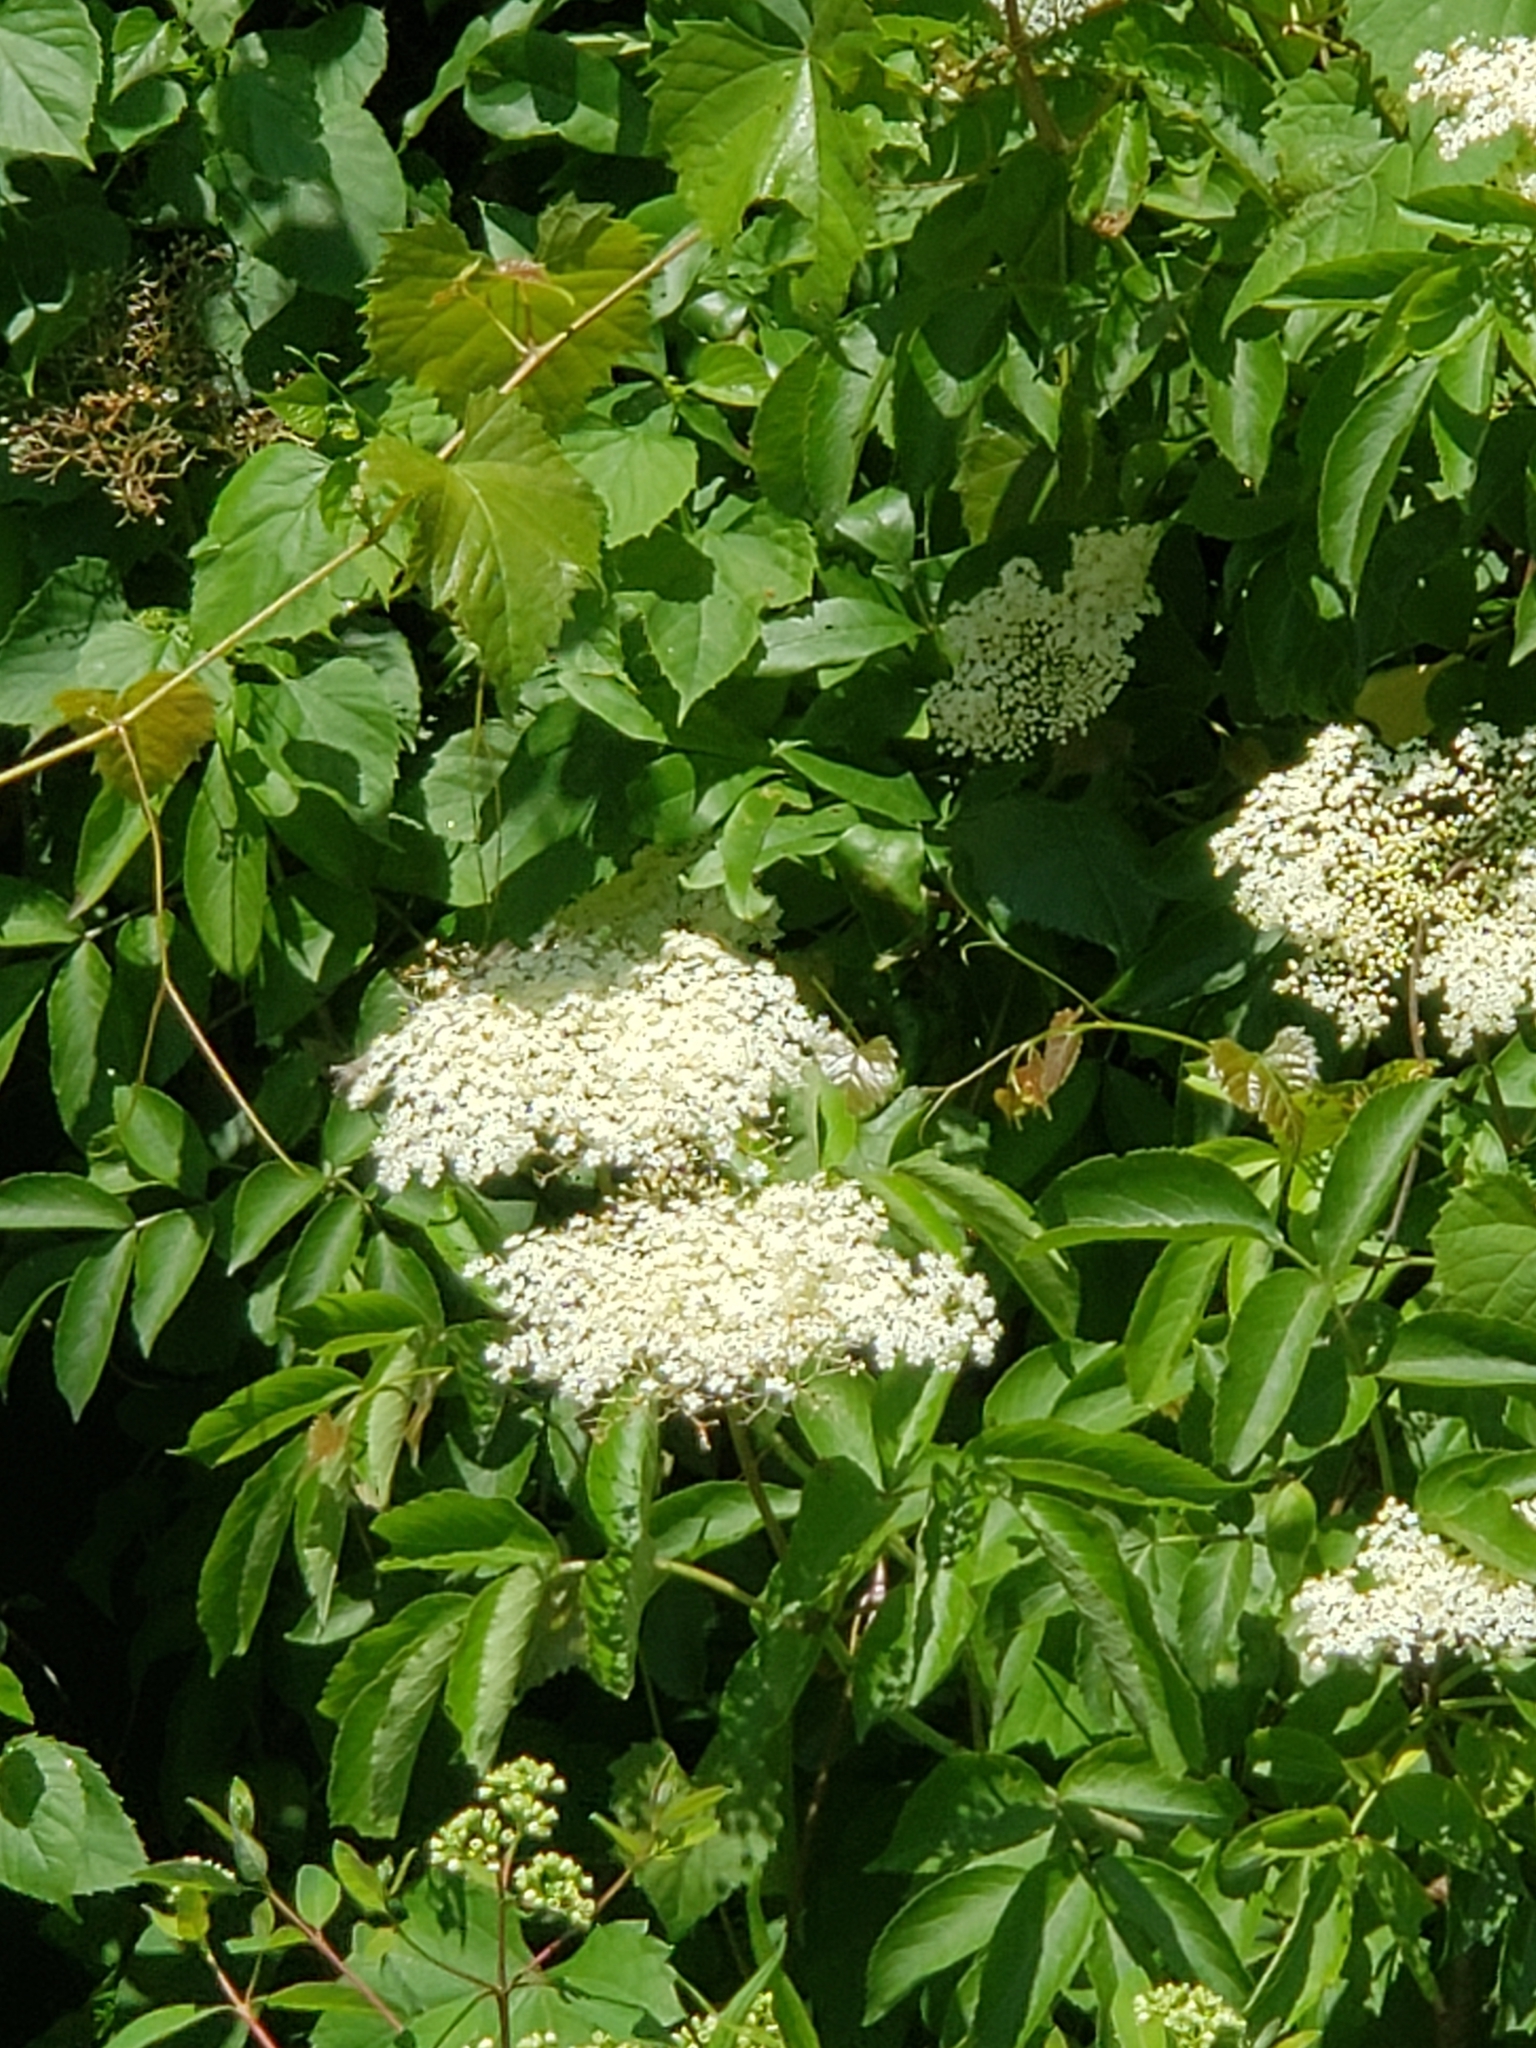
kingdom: Plantae
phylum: Tracheophyta
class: Magnoliopsida
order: Dipsacales
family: Viburnaceae
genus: Sambucus
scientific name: Sambucus canadensis
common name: American elder
